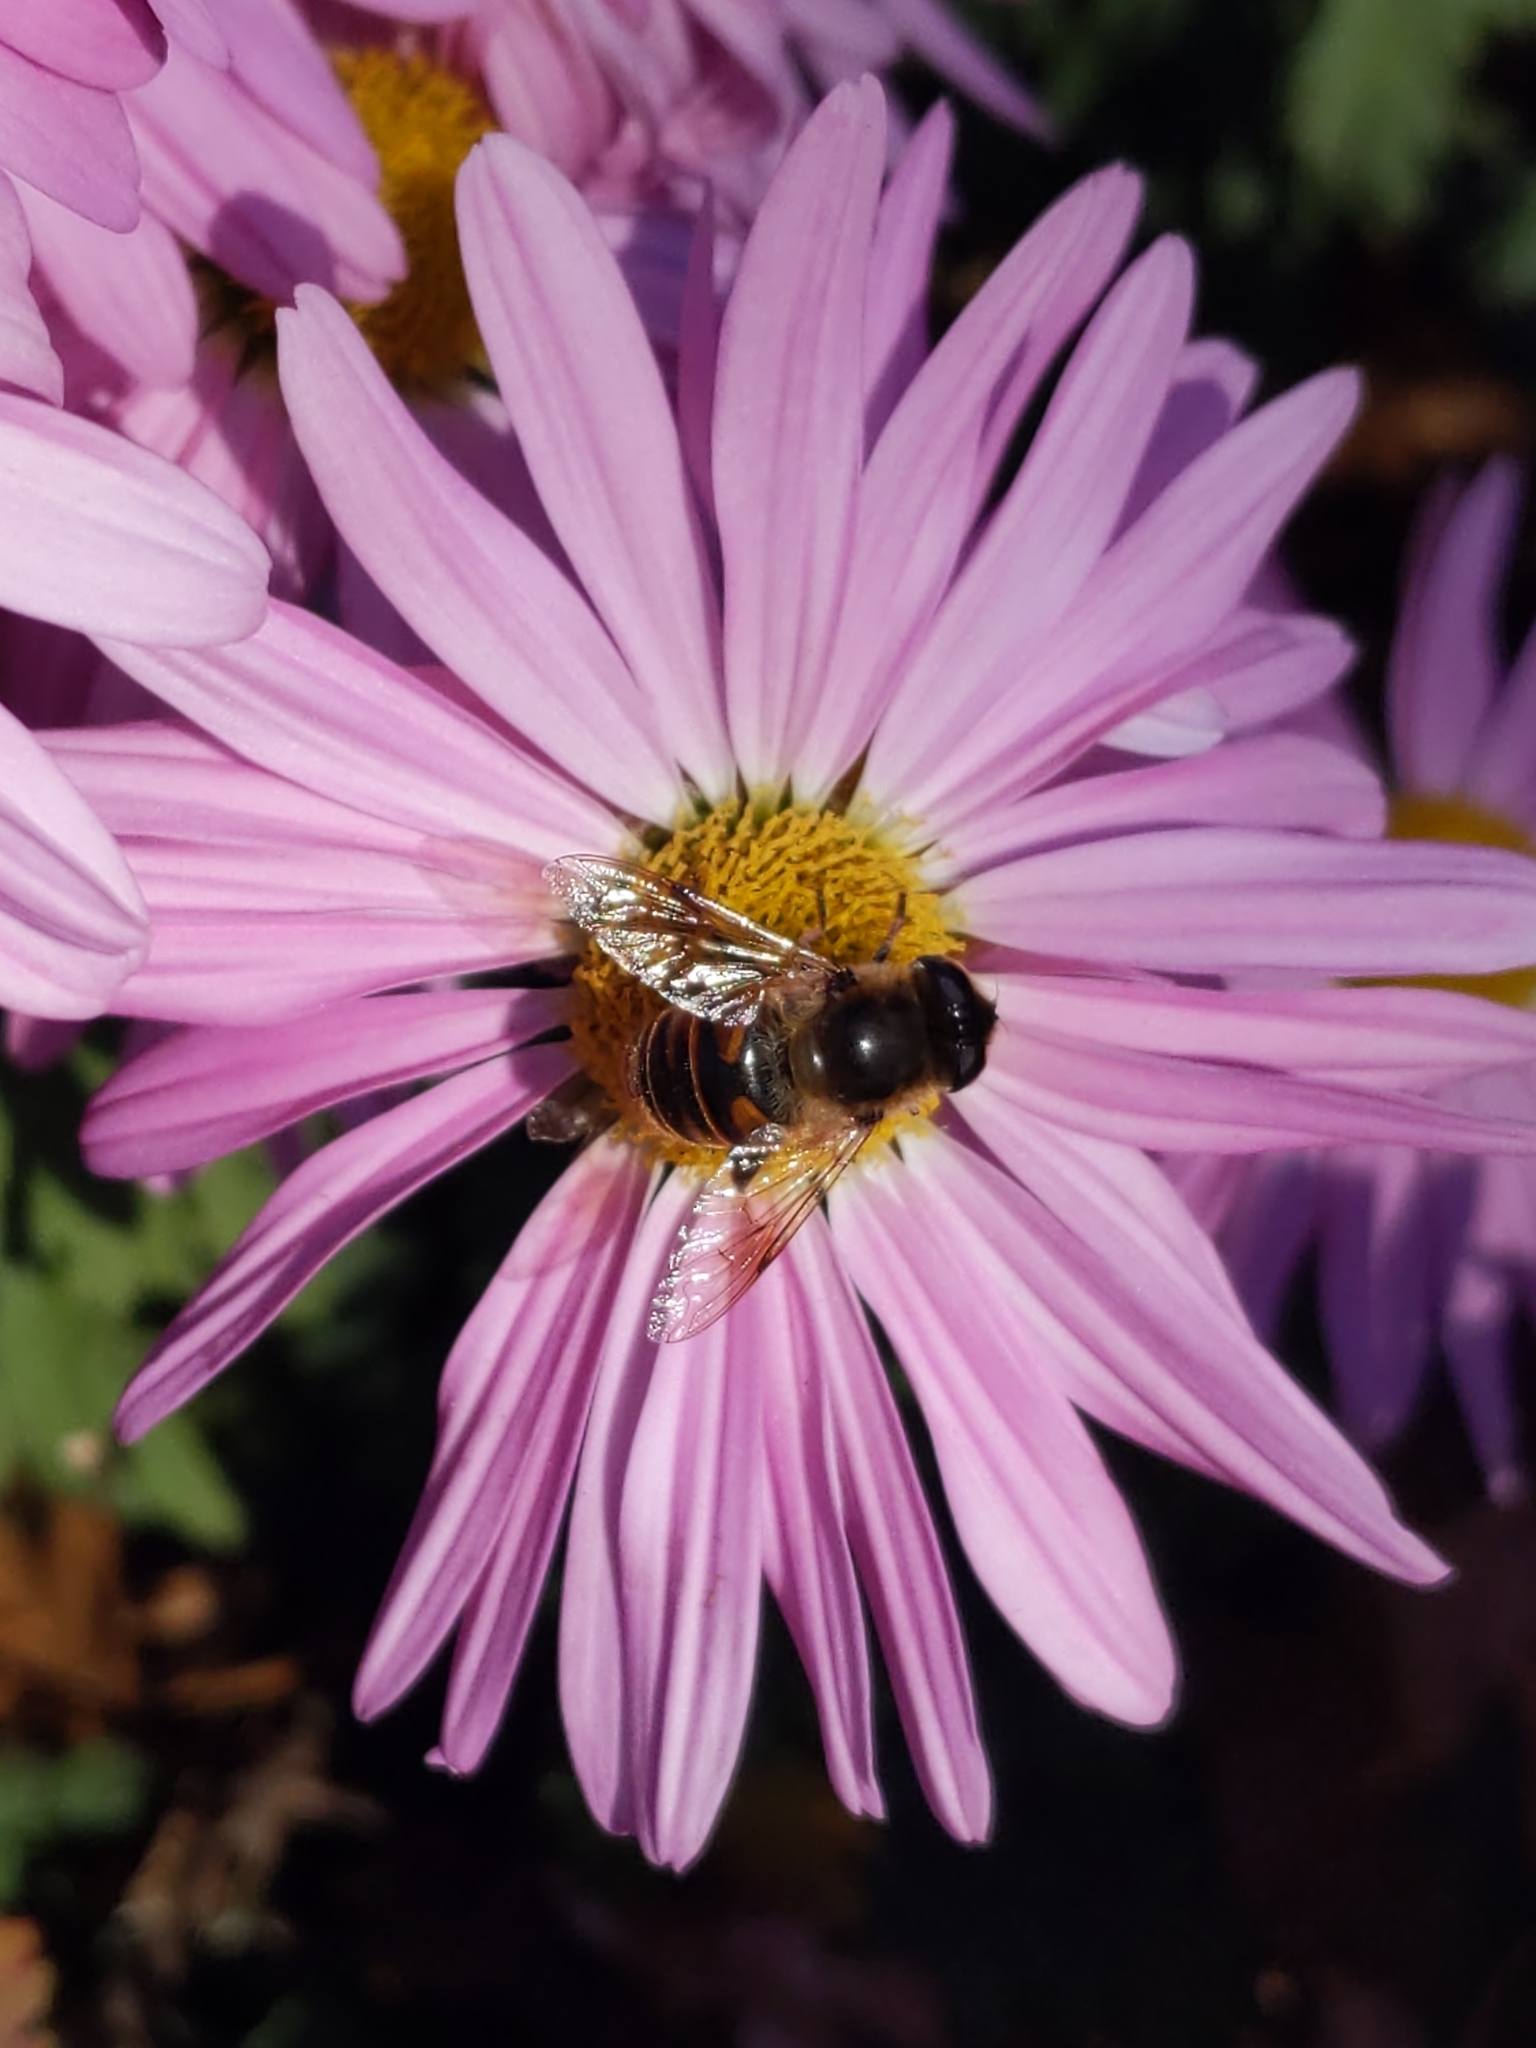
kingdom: Animalia
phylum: Arthropoda
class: Insecta
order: Diptera
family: Syrphidae
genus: Eristalis
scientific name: Eristalis tenax
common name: Drone fly
